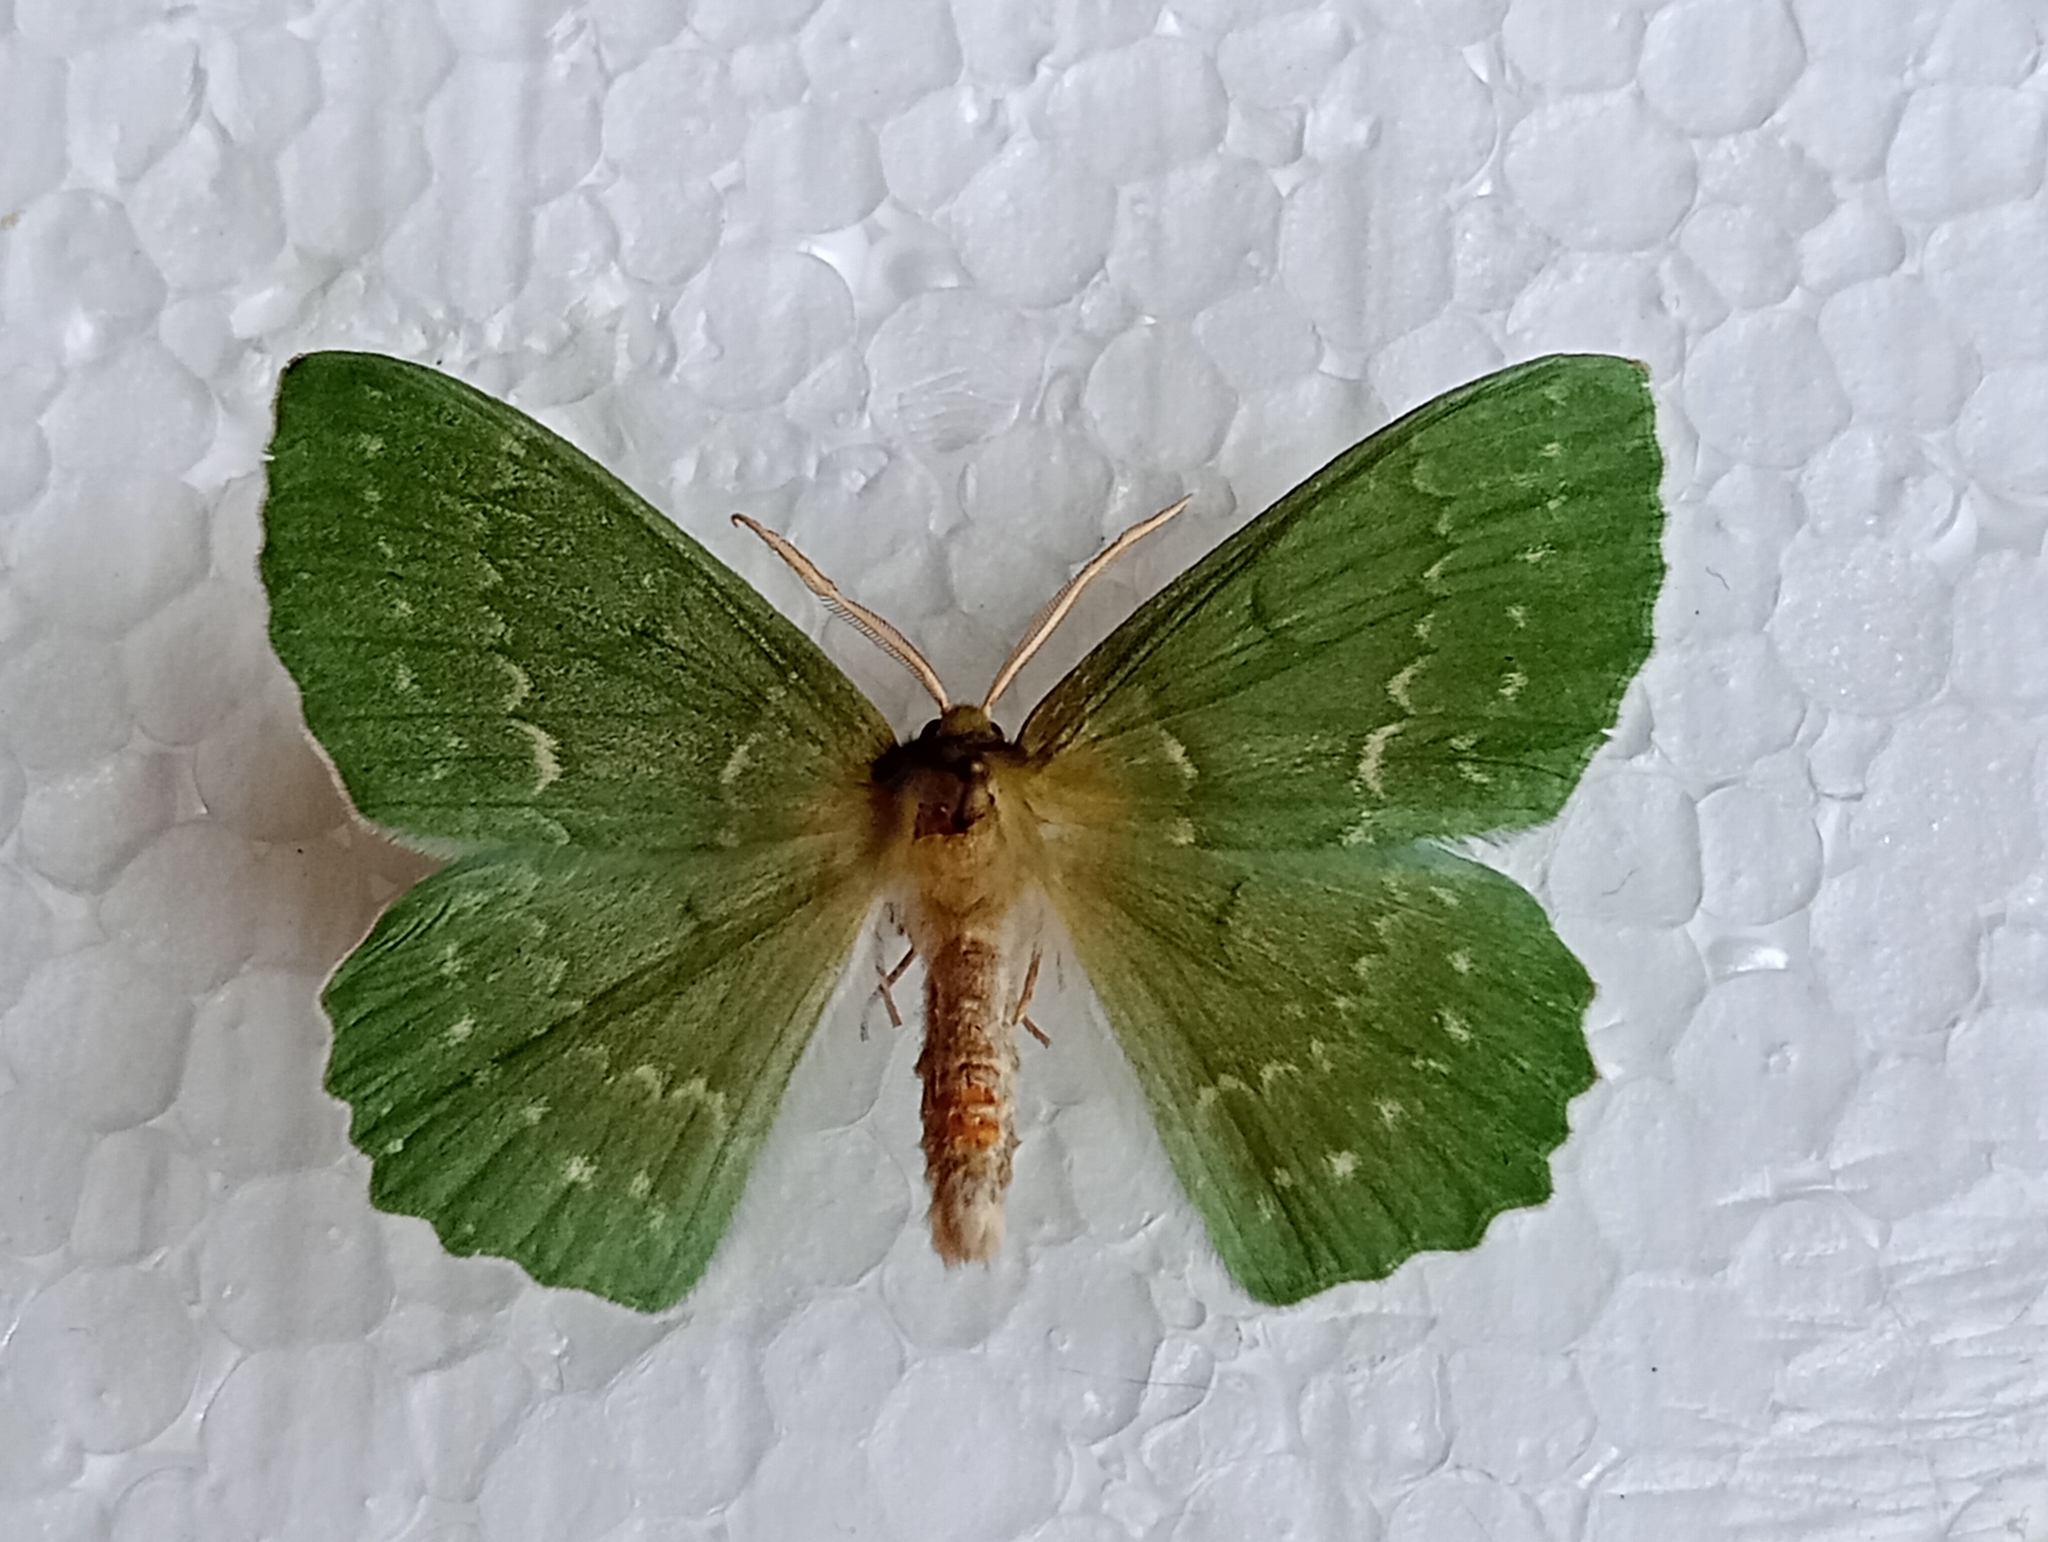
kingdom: Animalia
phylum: Arthropoda
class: Insecta
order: Lepidoptera
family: Geometridae
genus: Geometra
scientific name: Geometra papilionaria
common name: Large emerald
